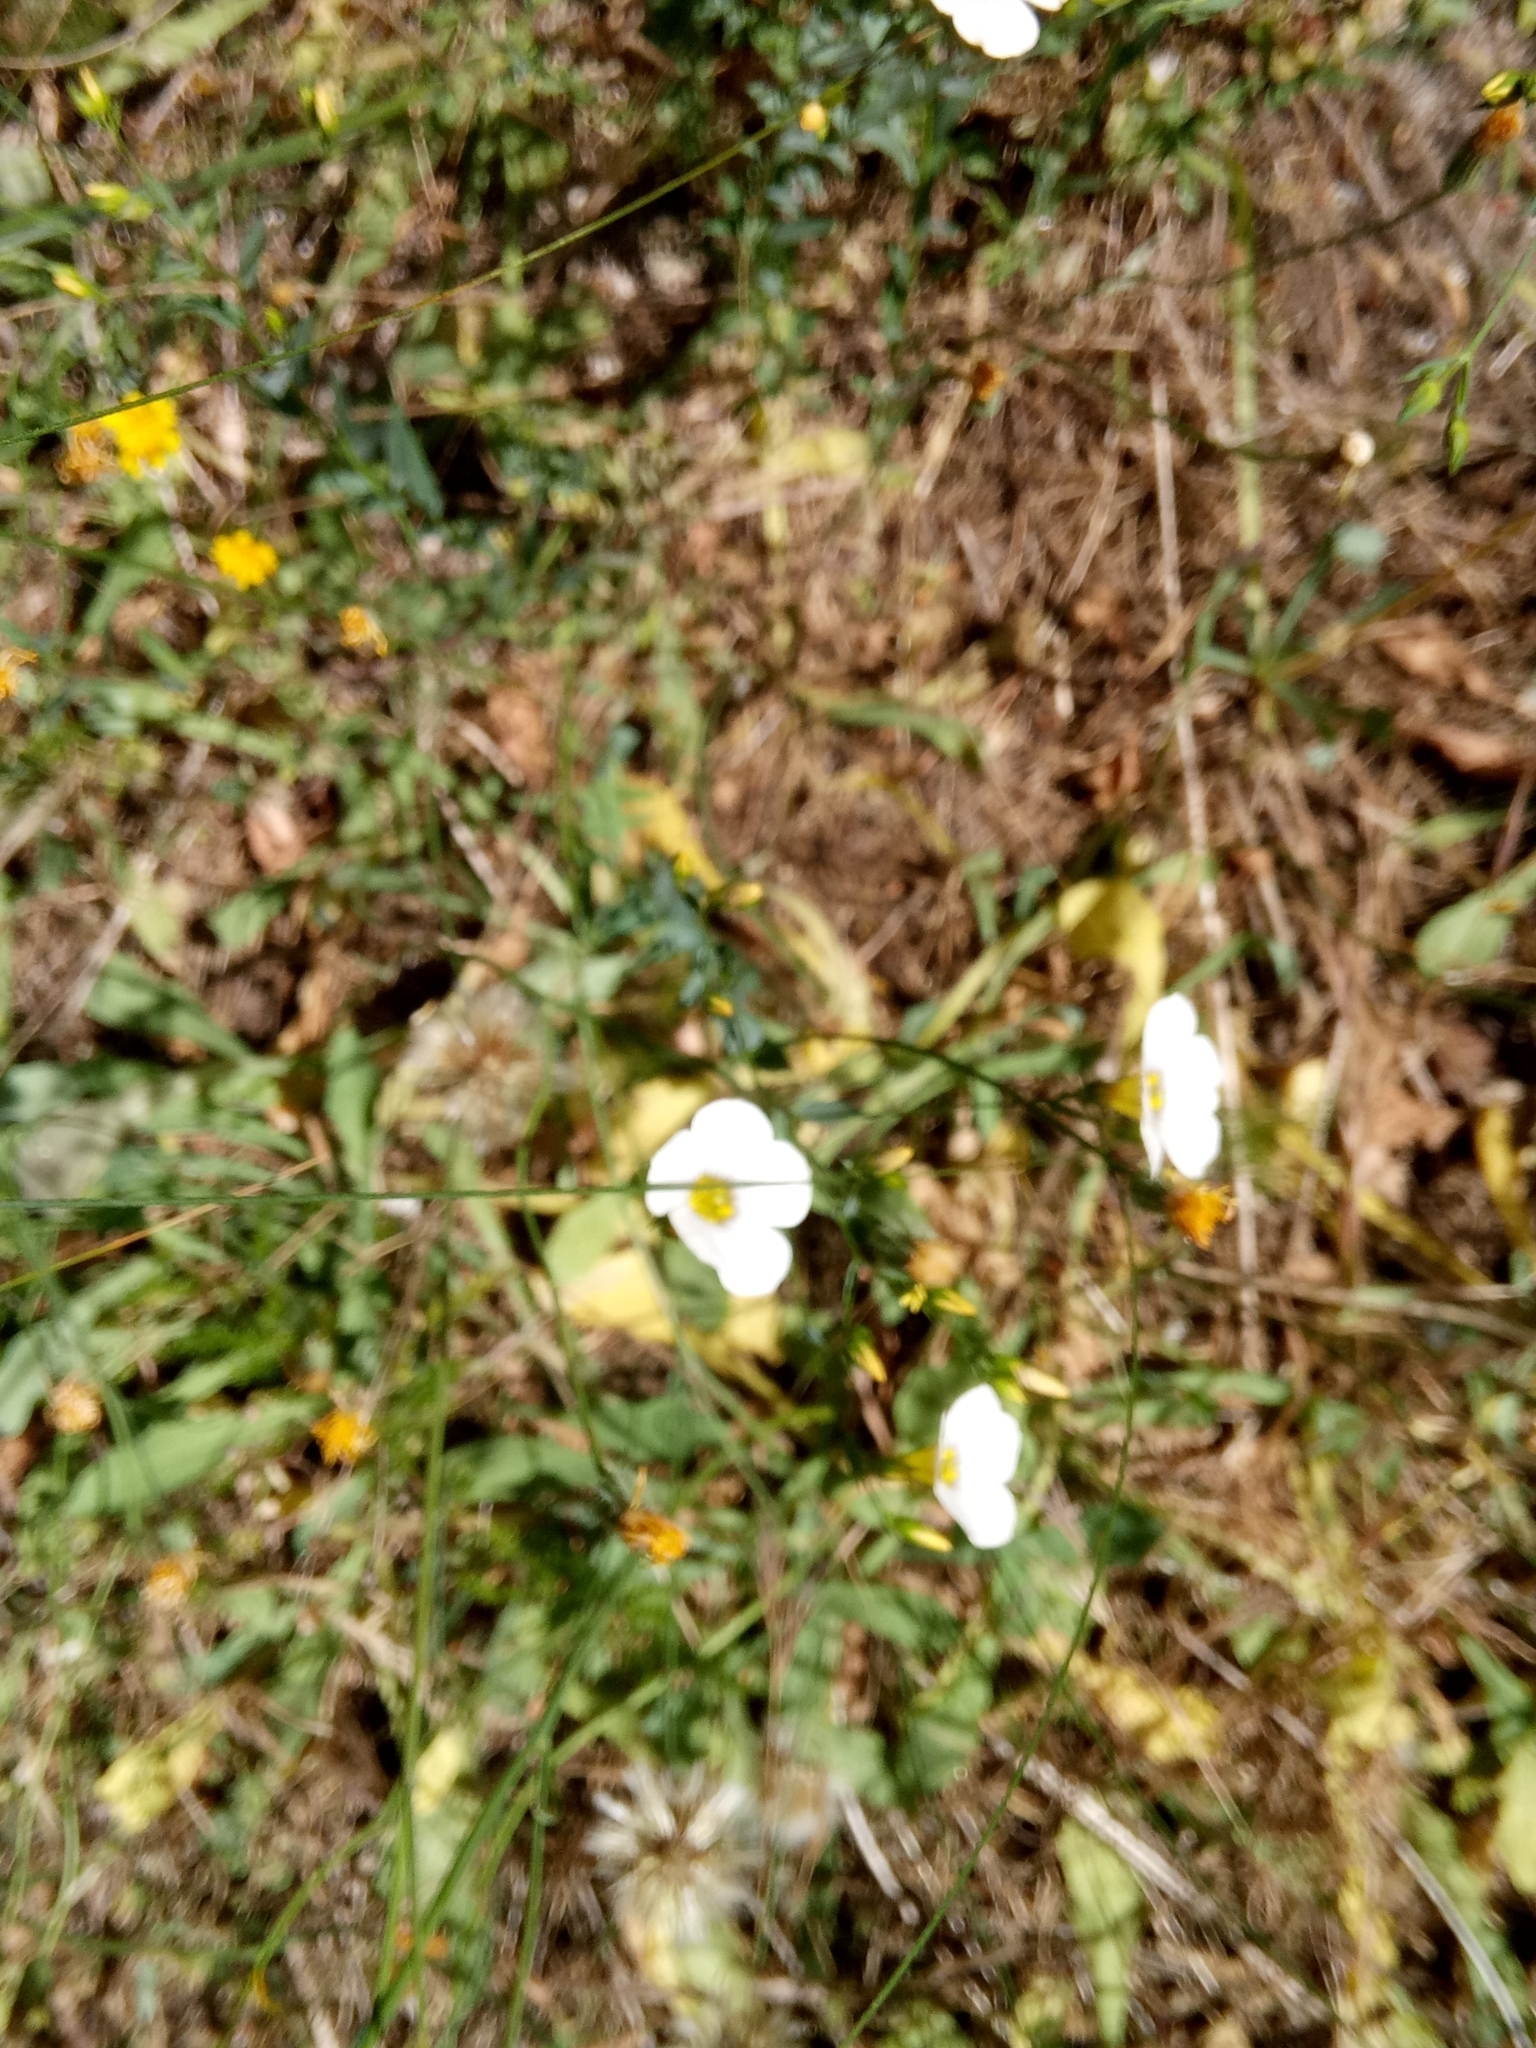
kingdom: Plantae
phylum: Tracheophyta
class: Magnoliopsida
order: Malpighiales
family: Linaceae
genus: Linum
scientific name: Linum corymbiferum
